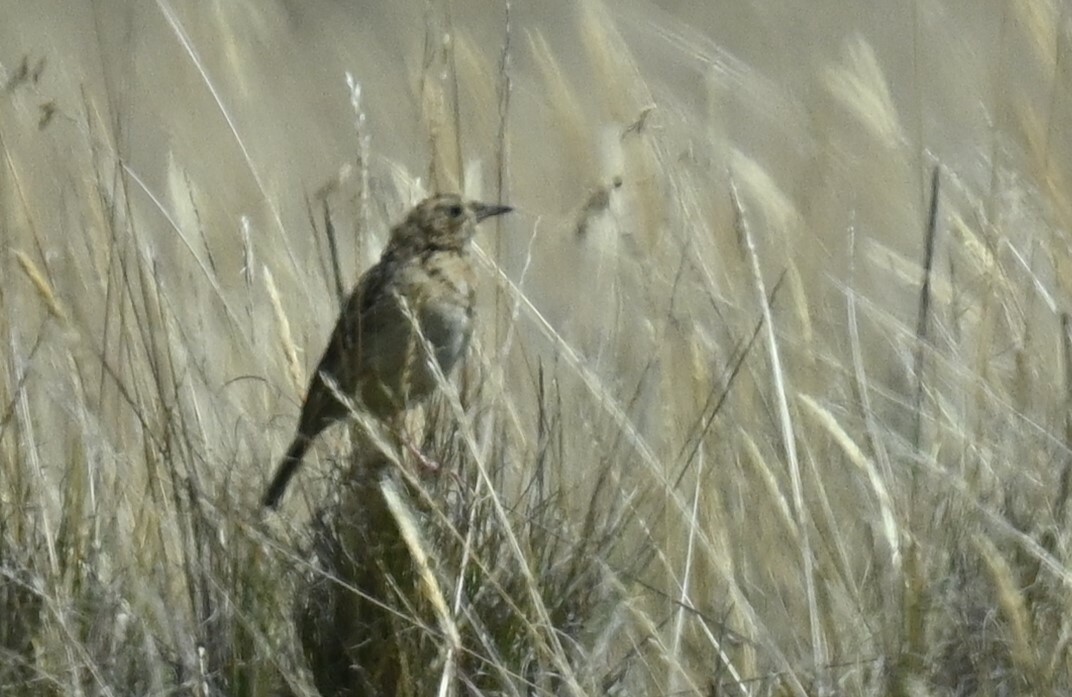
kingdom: Animalia
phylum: Chordata
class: Aves
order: Passeriformes
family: Motacillidae
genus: Anthus
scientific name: Anthus bogotensis
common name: Paramo pipit
